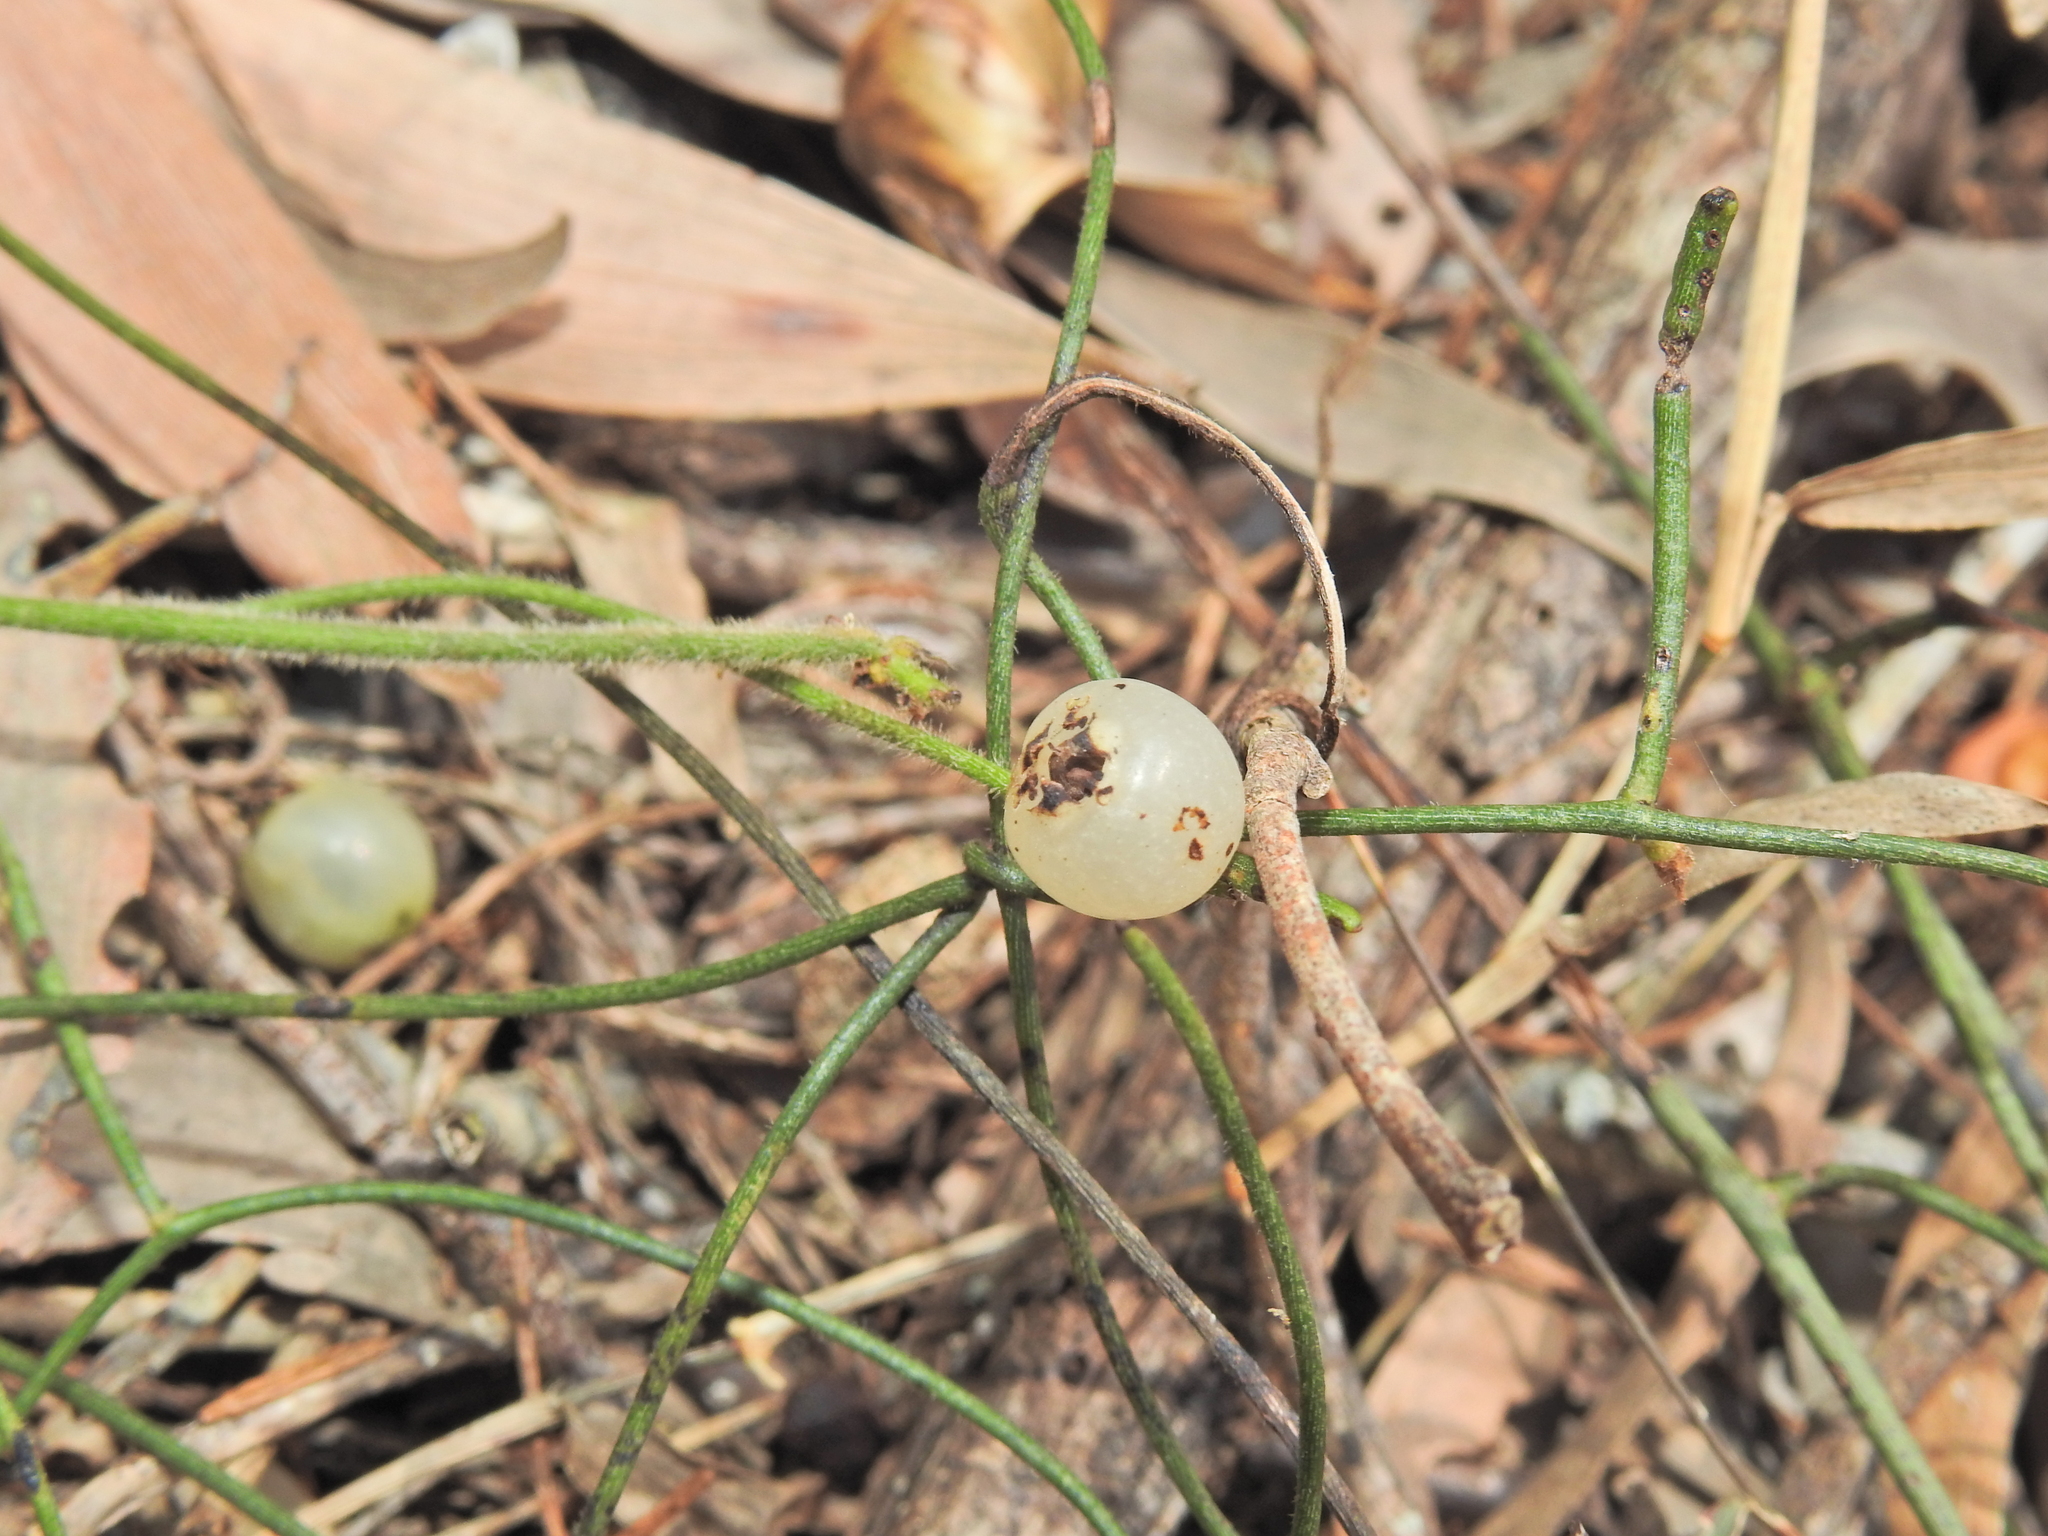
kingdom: Plantae
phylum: Tracheophyta
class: Magnoliopsida
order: Laurales
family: Lauraceae
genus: Cassytha
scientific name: Cassytha filiformis
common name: Dodder-laurel
